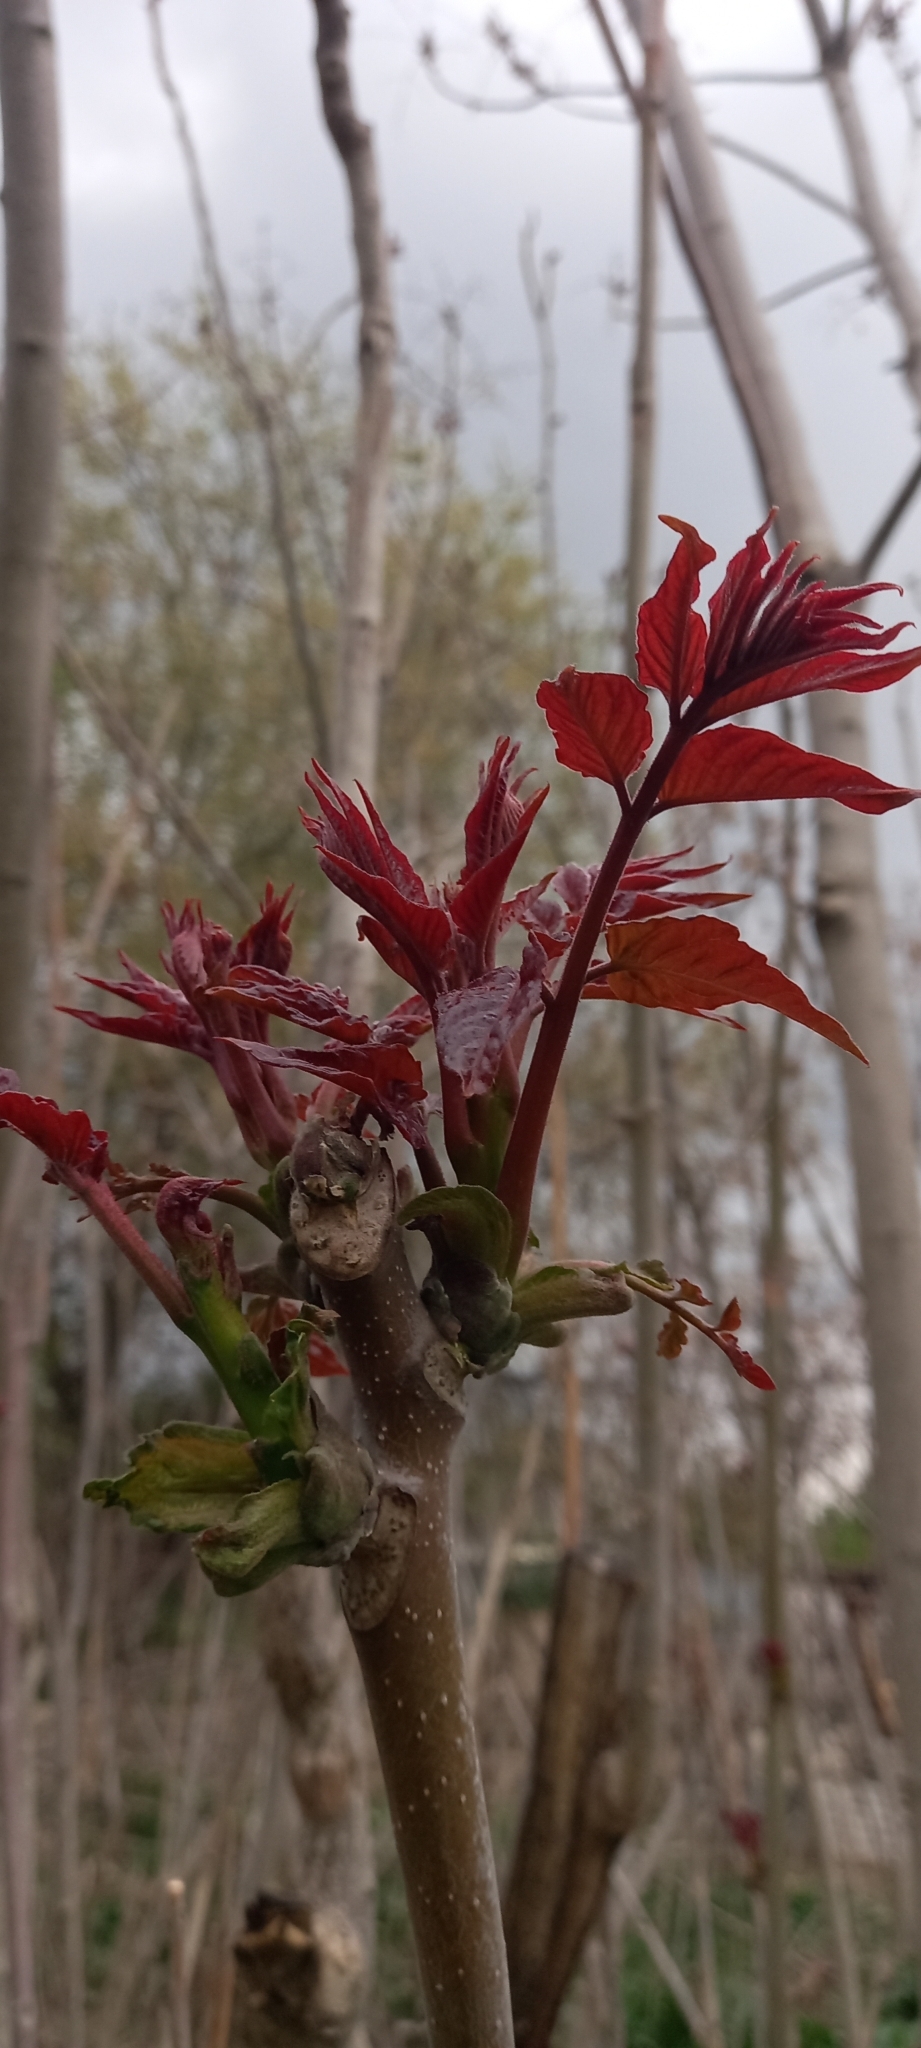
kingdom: Plantae
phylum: Tracheophyta
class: Magnoliopsida
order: Sapindales
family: Simaroubaceae
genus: Ailanthus
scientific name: Ailanthus altissima
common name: Tree-of-heaven
